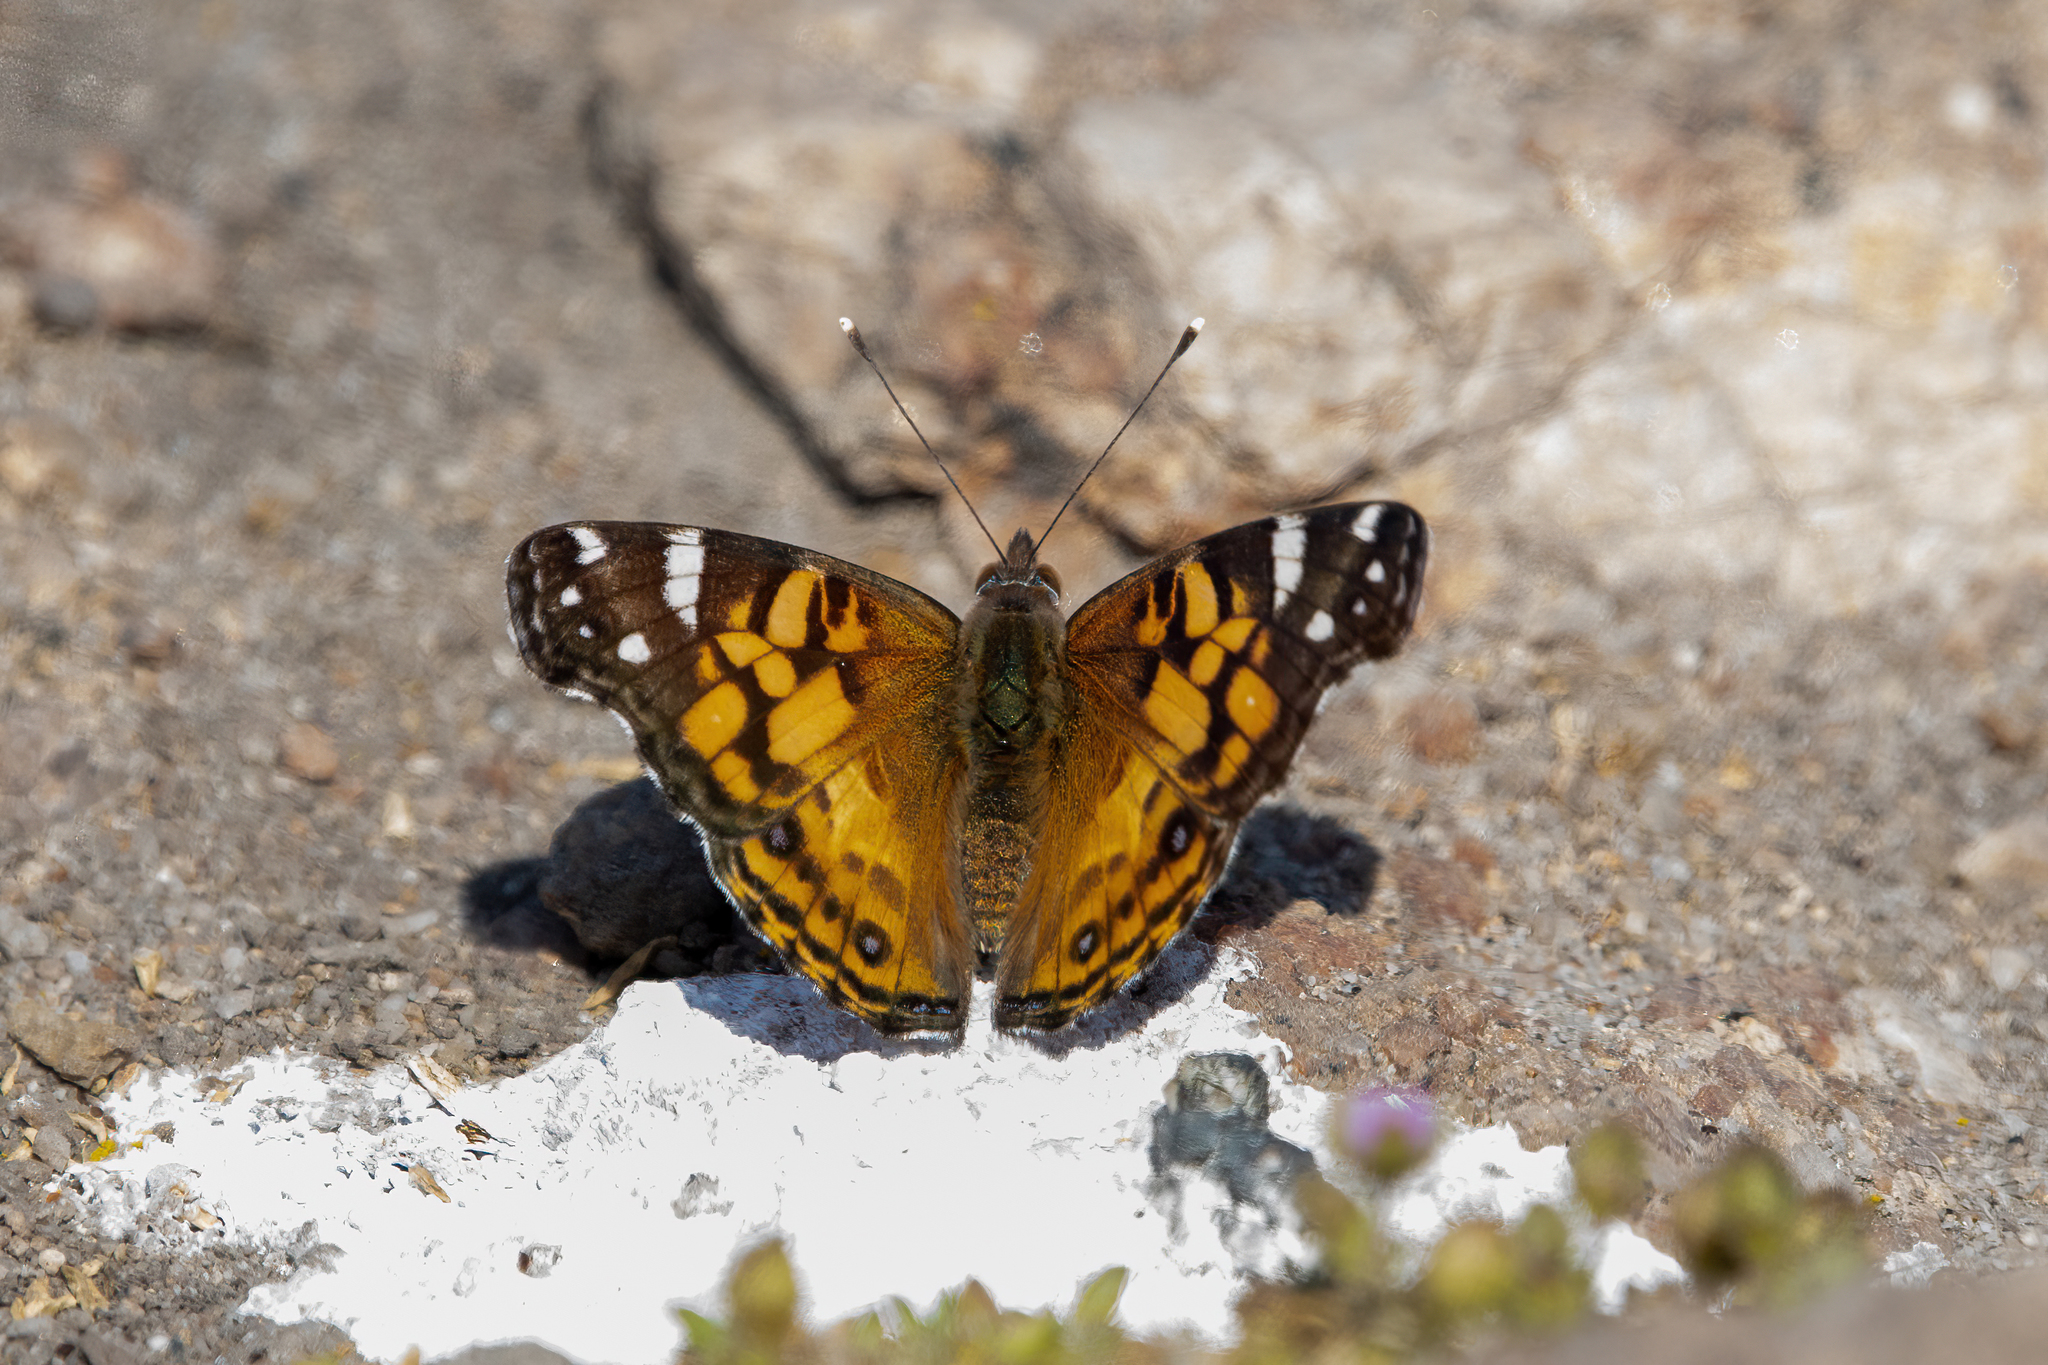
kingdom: Animalia
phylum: Arthropoda
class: Insecta
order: Lepidoptera
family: Nymphalidae
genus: Vanessa
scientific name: Vanessa virginiensis
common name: American lady
